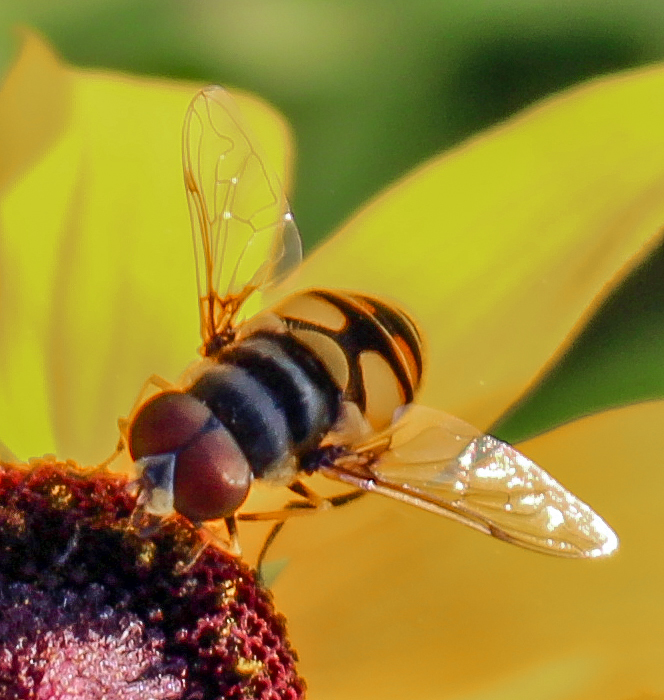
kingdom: Animalia
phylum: Arthropoda
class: Insecta
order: Diptera
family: Syrphidae
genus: Eristalis
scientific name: Eristalis transversa
